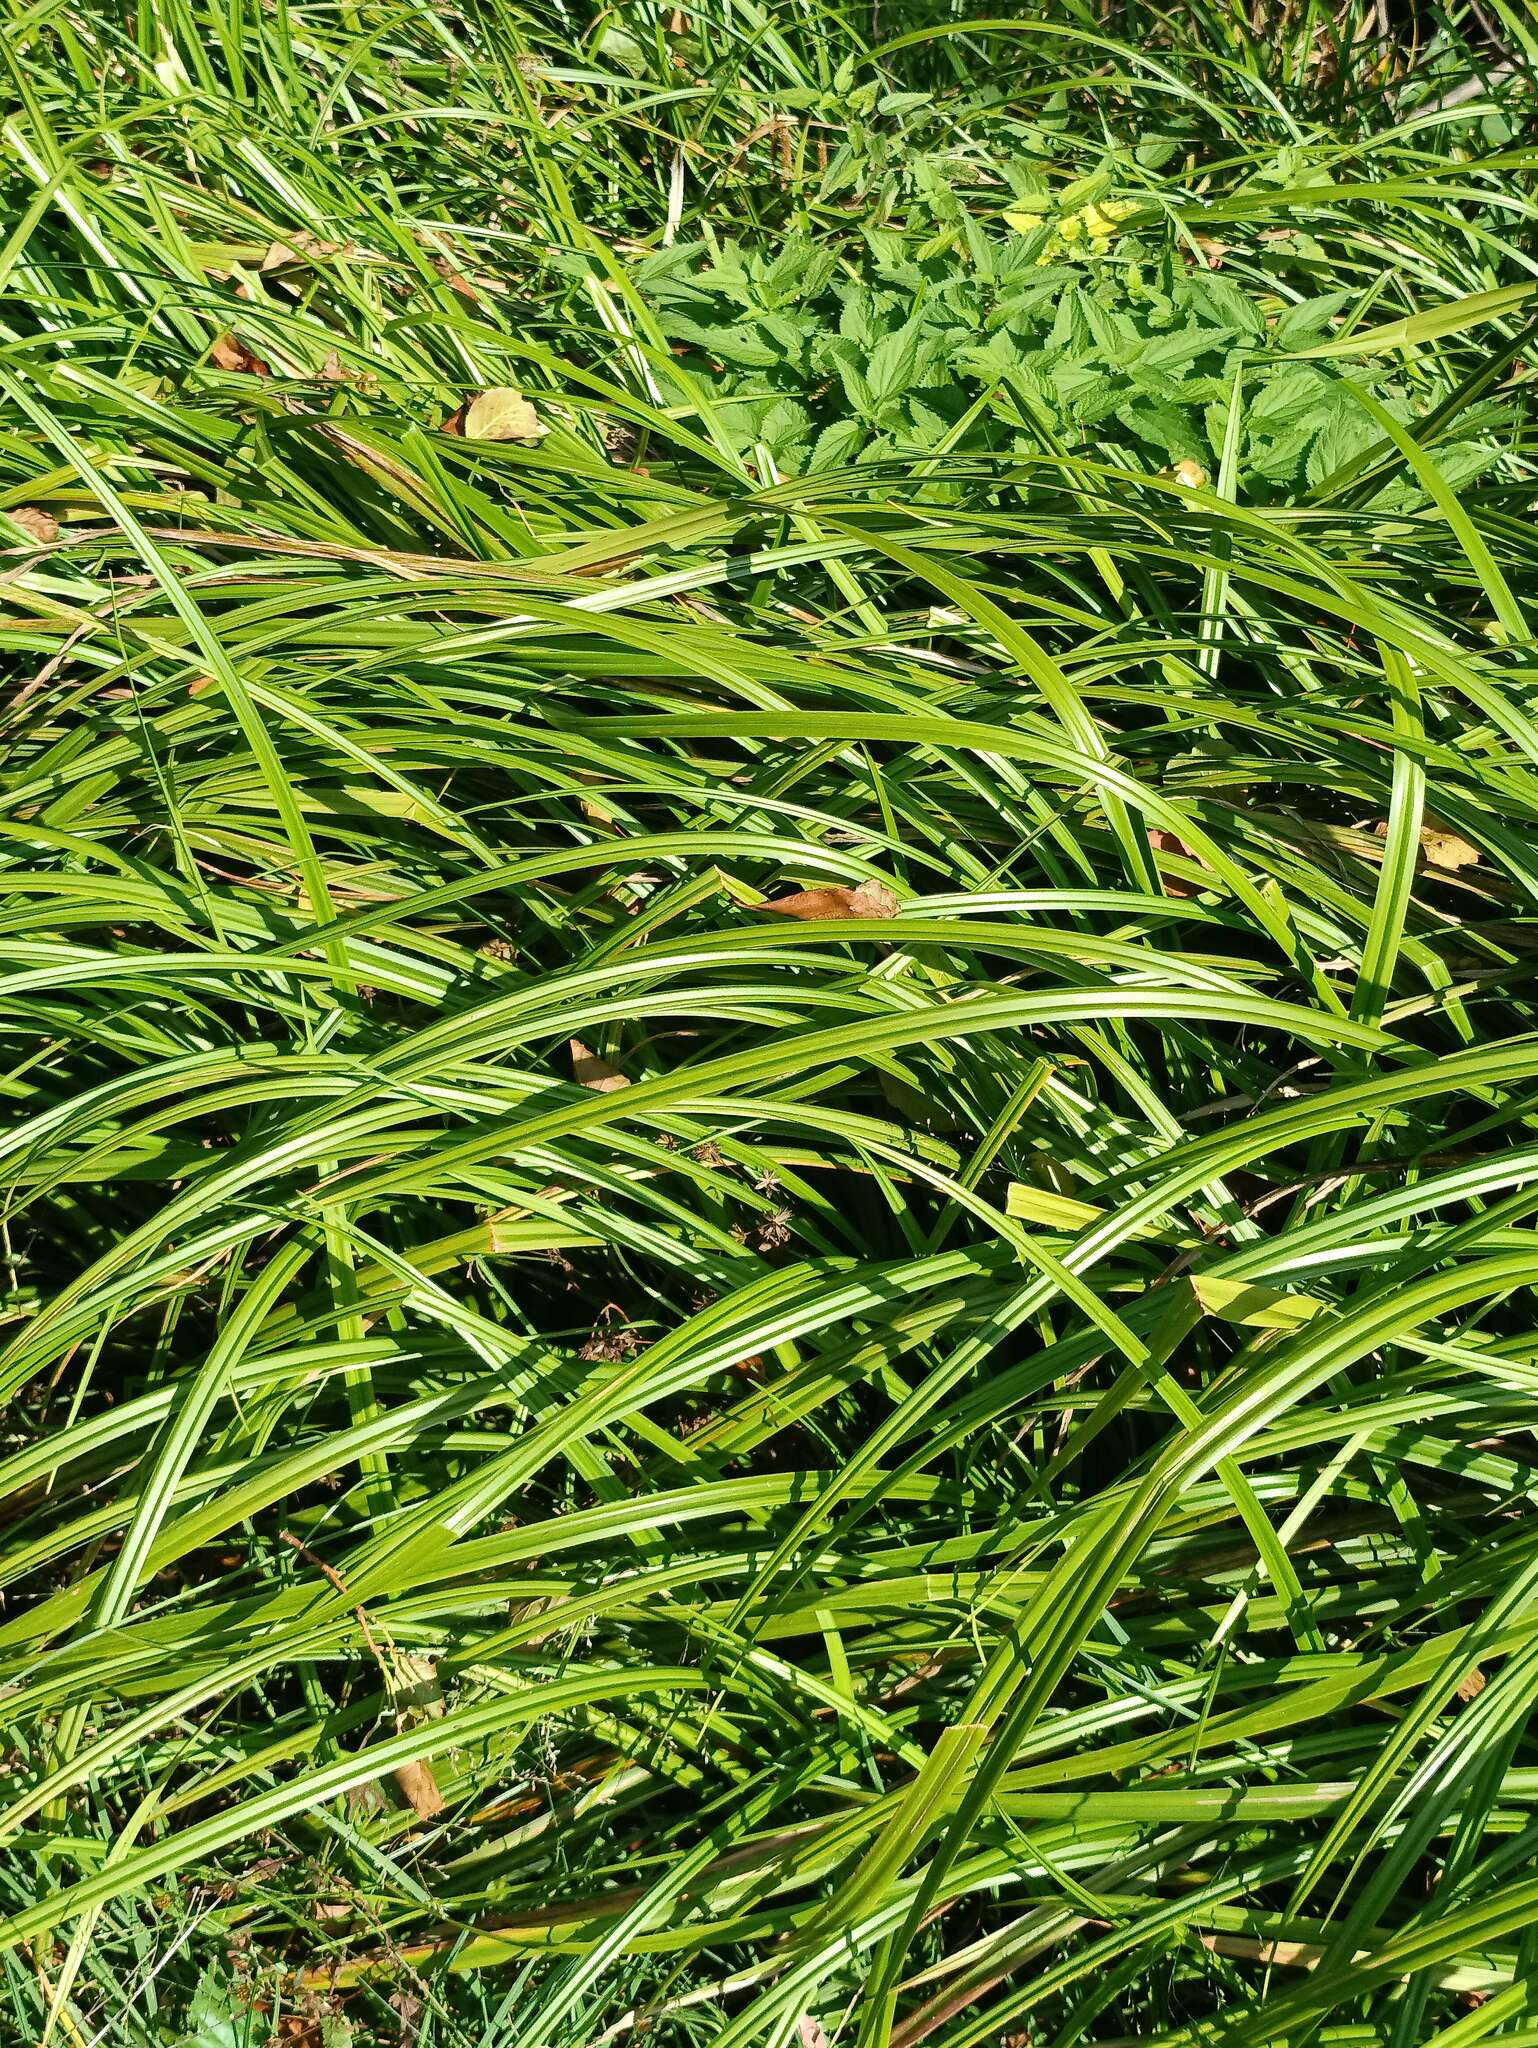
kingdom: Plantae
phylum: Tracheophyta
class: Liliopsida
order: Poales
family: Cyperaceae
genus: Scirpus
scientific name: Scirpus sylvaticus
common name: Wood club-rush
